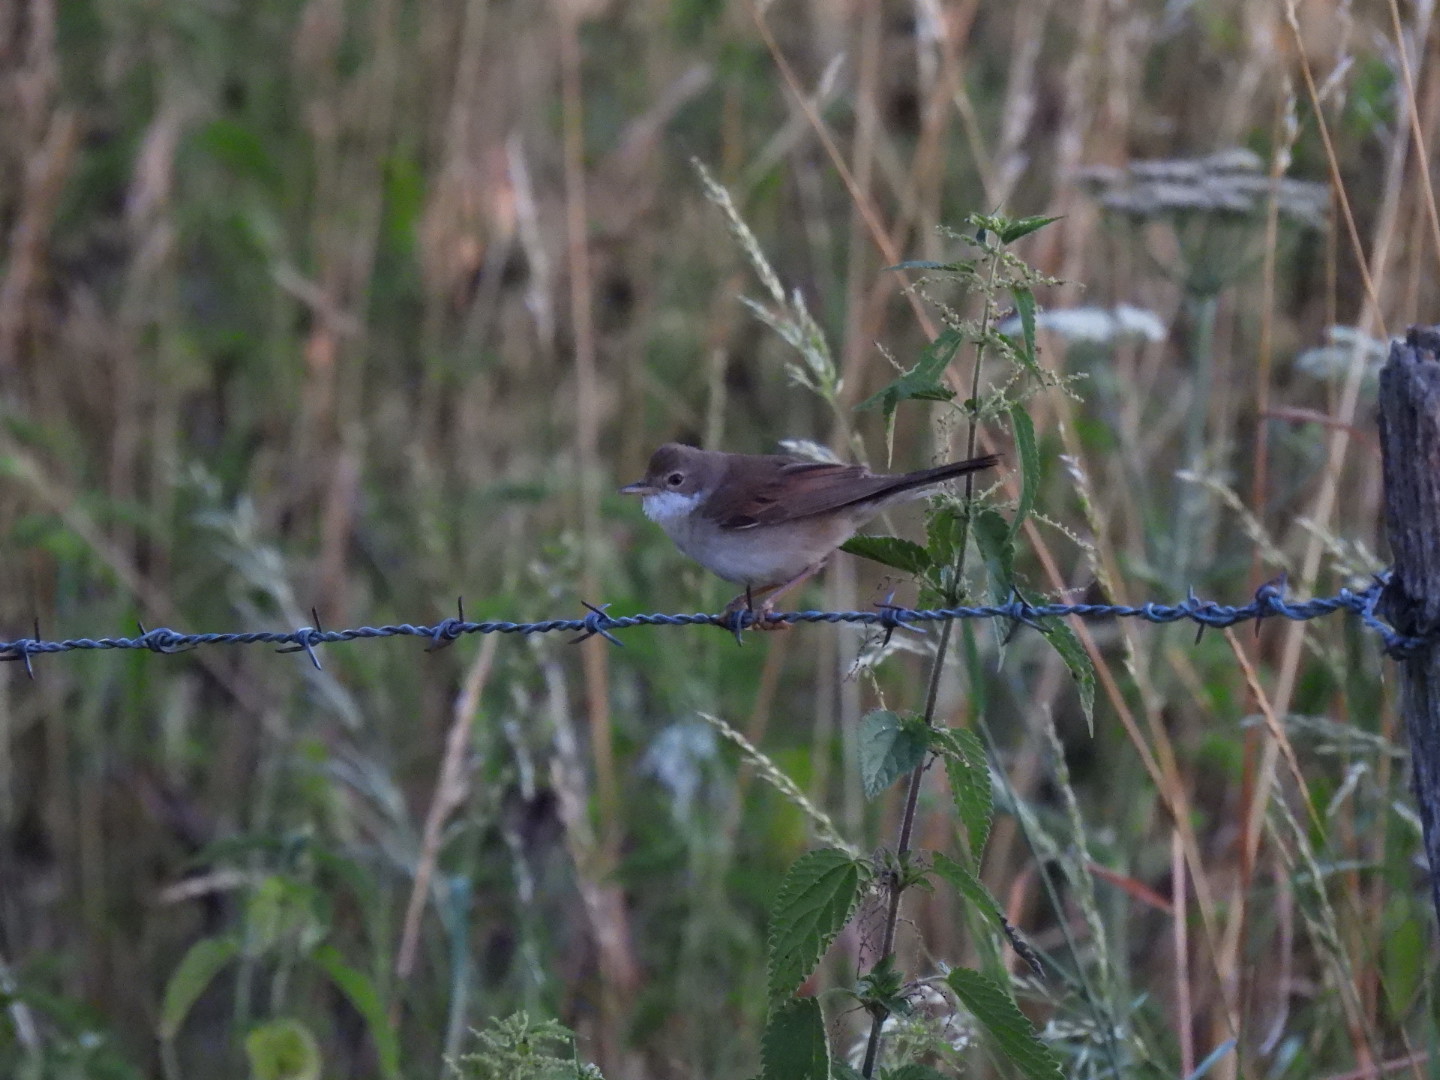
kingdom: Animalia
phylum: Chordata
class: Aves
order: Passeriformes
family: Sylviidae
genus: Sylvia
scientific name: Sylvia communis
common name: Common whitethroat
